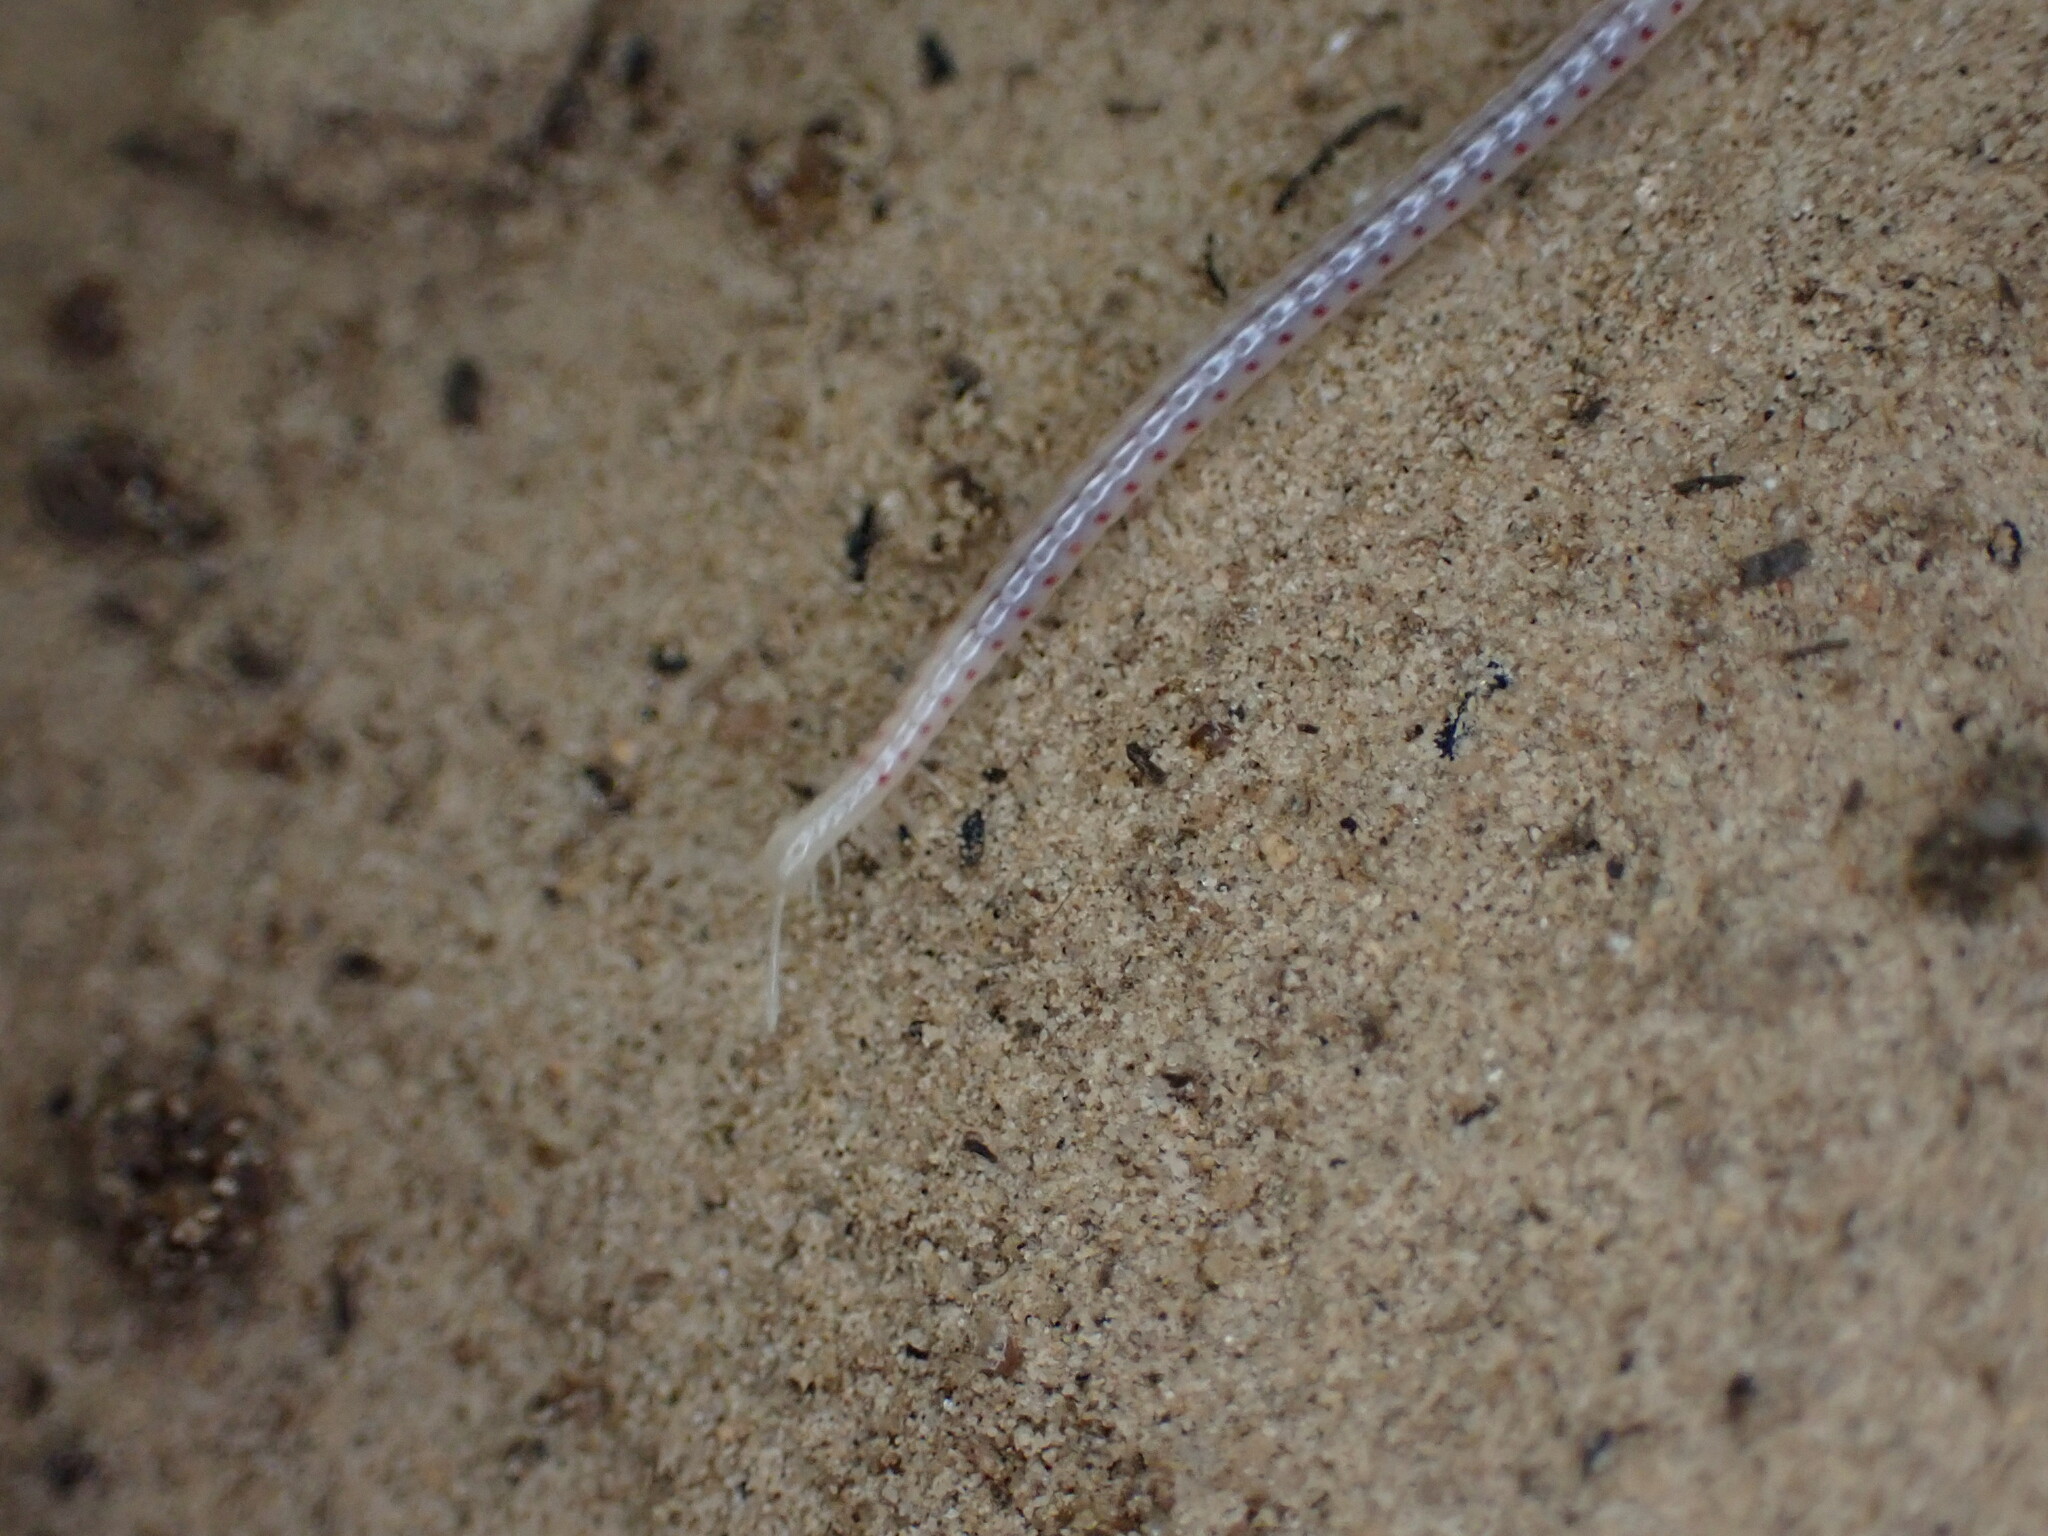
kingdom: Animalia
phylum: Arthropoda
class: Diplopoda
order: Julida
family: Blaniulidae
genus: Blaniulus
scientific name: Blaniulus guttulatus
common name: Spotted snake millipede
